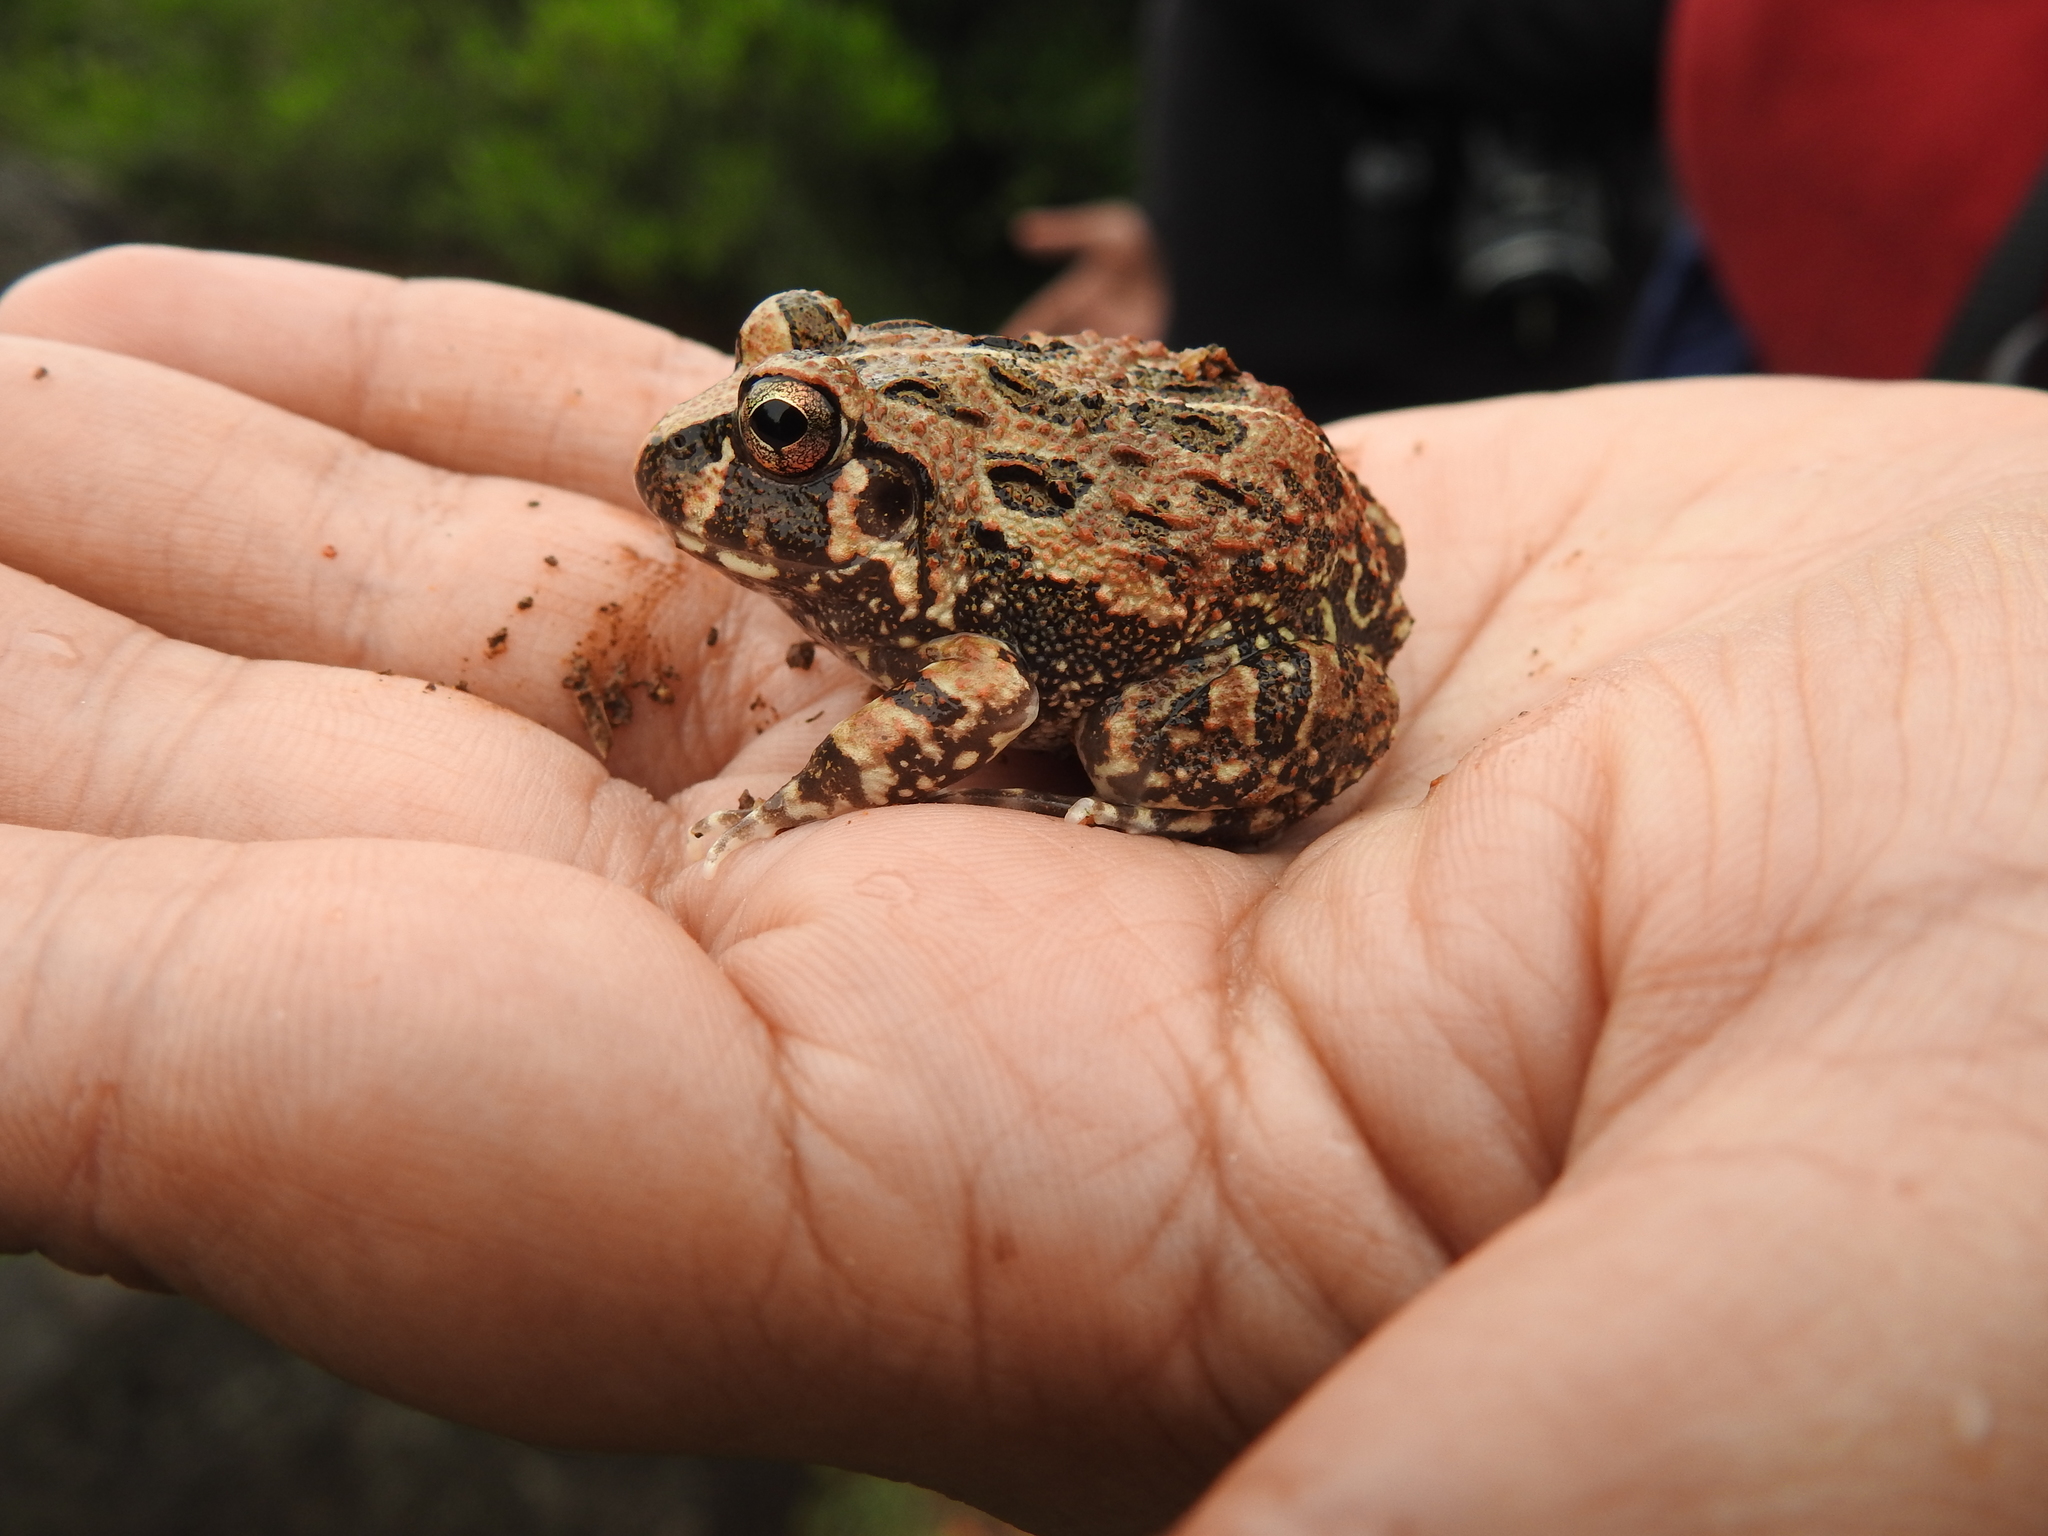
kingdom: Animalia
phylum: Chordata
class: Amphibia
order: Anura
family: Dicroglossidae
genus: Sphaerotheca
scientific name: Sphaerotheca bengaluru
